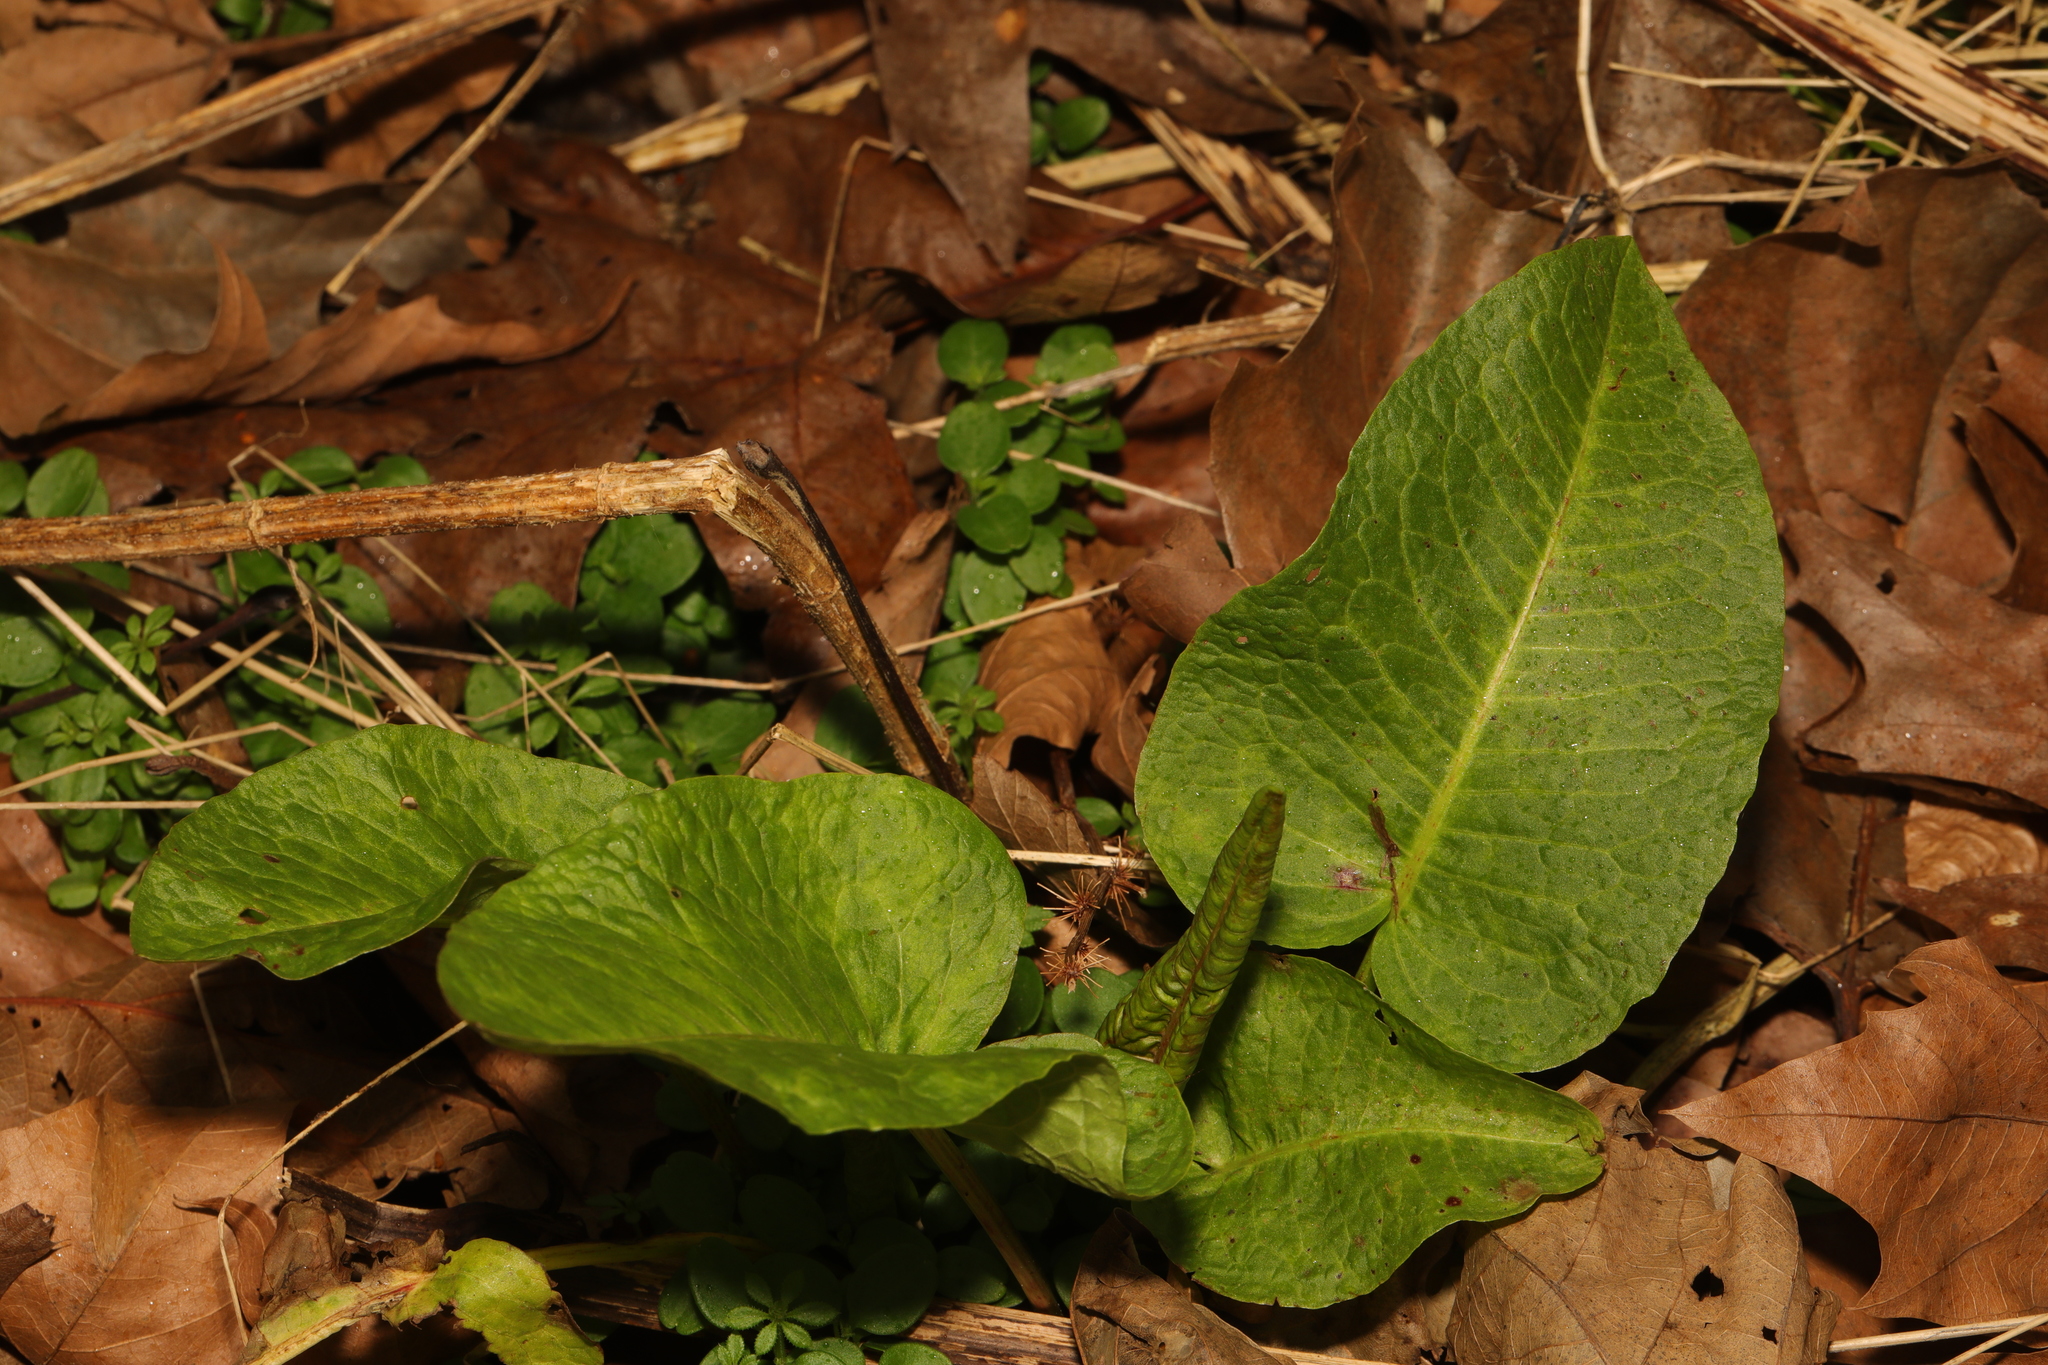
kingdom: Plantae
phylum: Tracheophyta
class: Magnoliopsida
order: Caryophyllales
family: Polygonaceae
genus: Rumex
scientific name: Rumex obtusifolius
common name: Bitter dock
